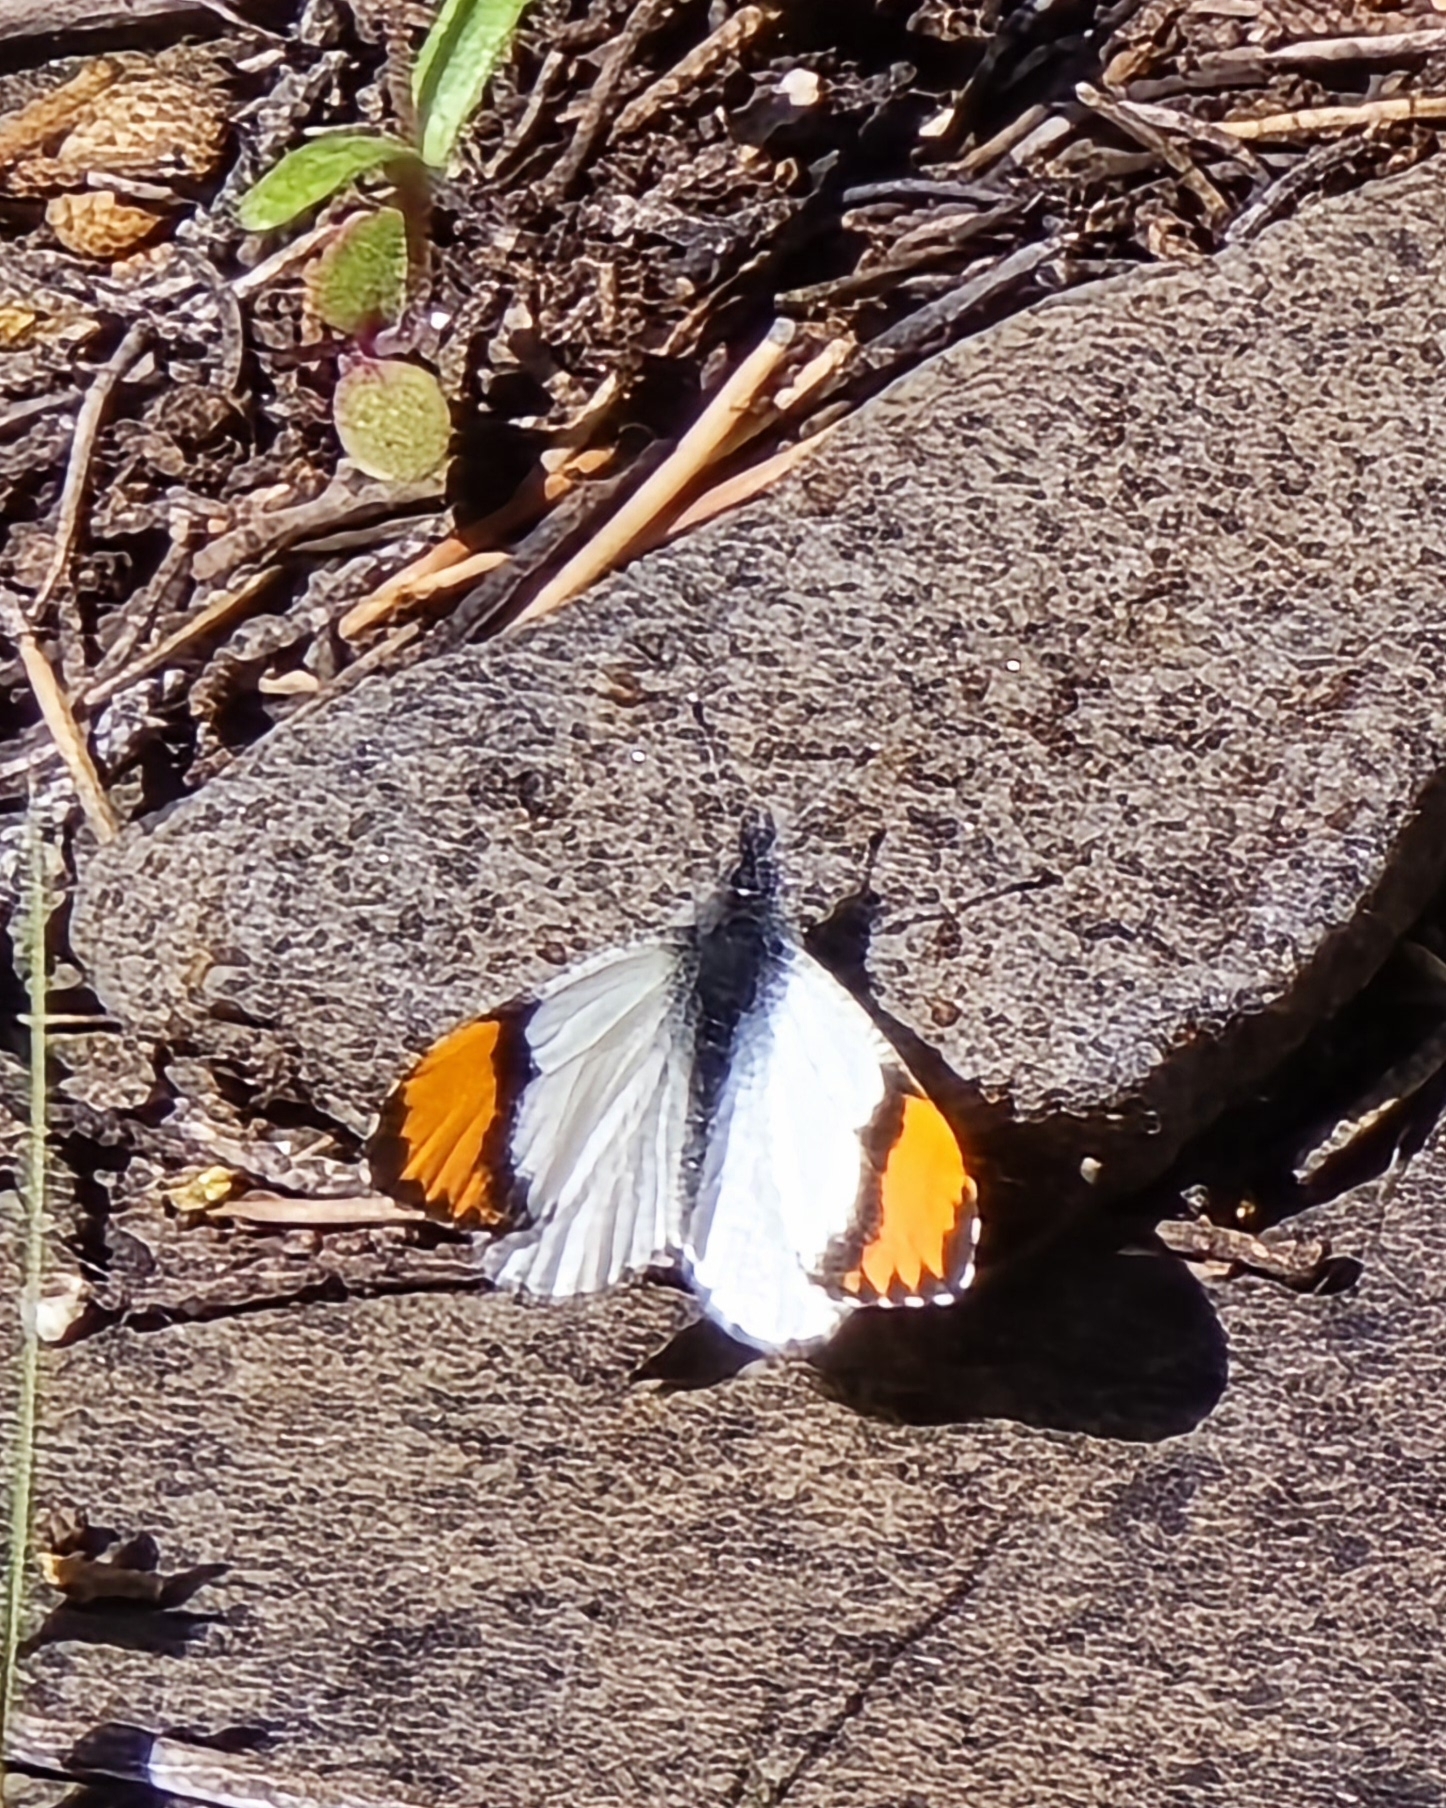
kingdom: Animalia
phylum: Arthropoda
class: Insecta
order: Lepidoptera
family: Pieridae
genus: Anthocharis
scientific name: Anthocharis thoosa
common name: Southwestern orangetip
